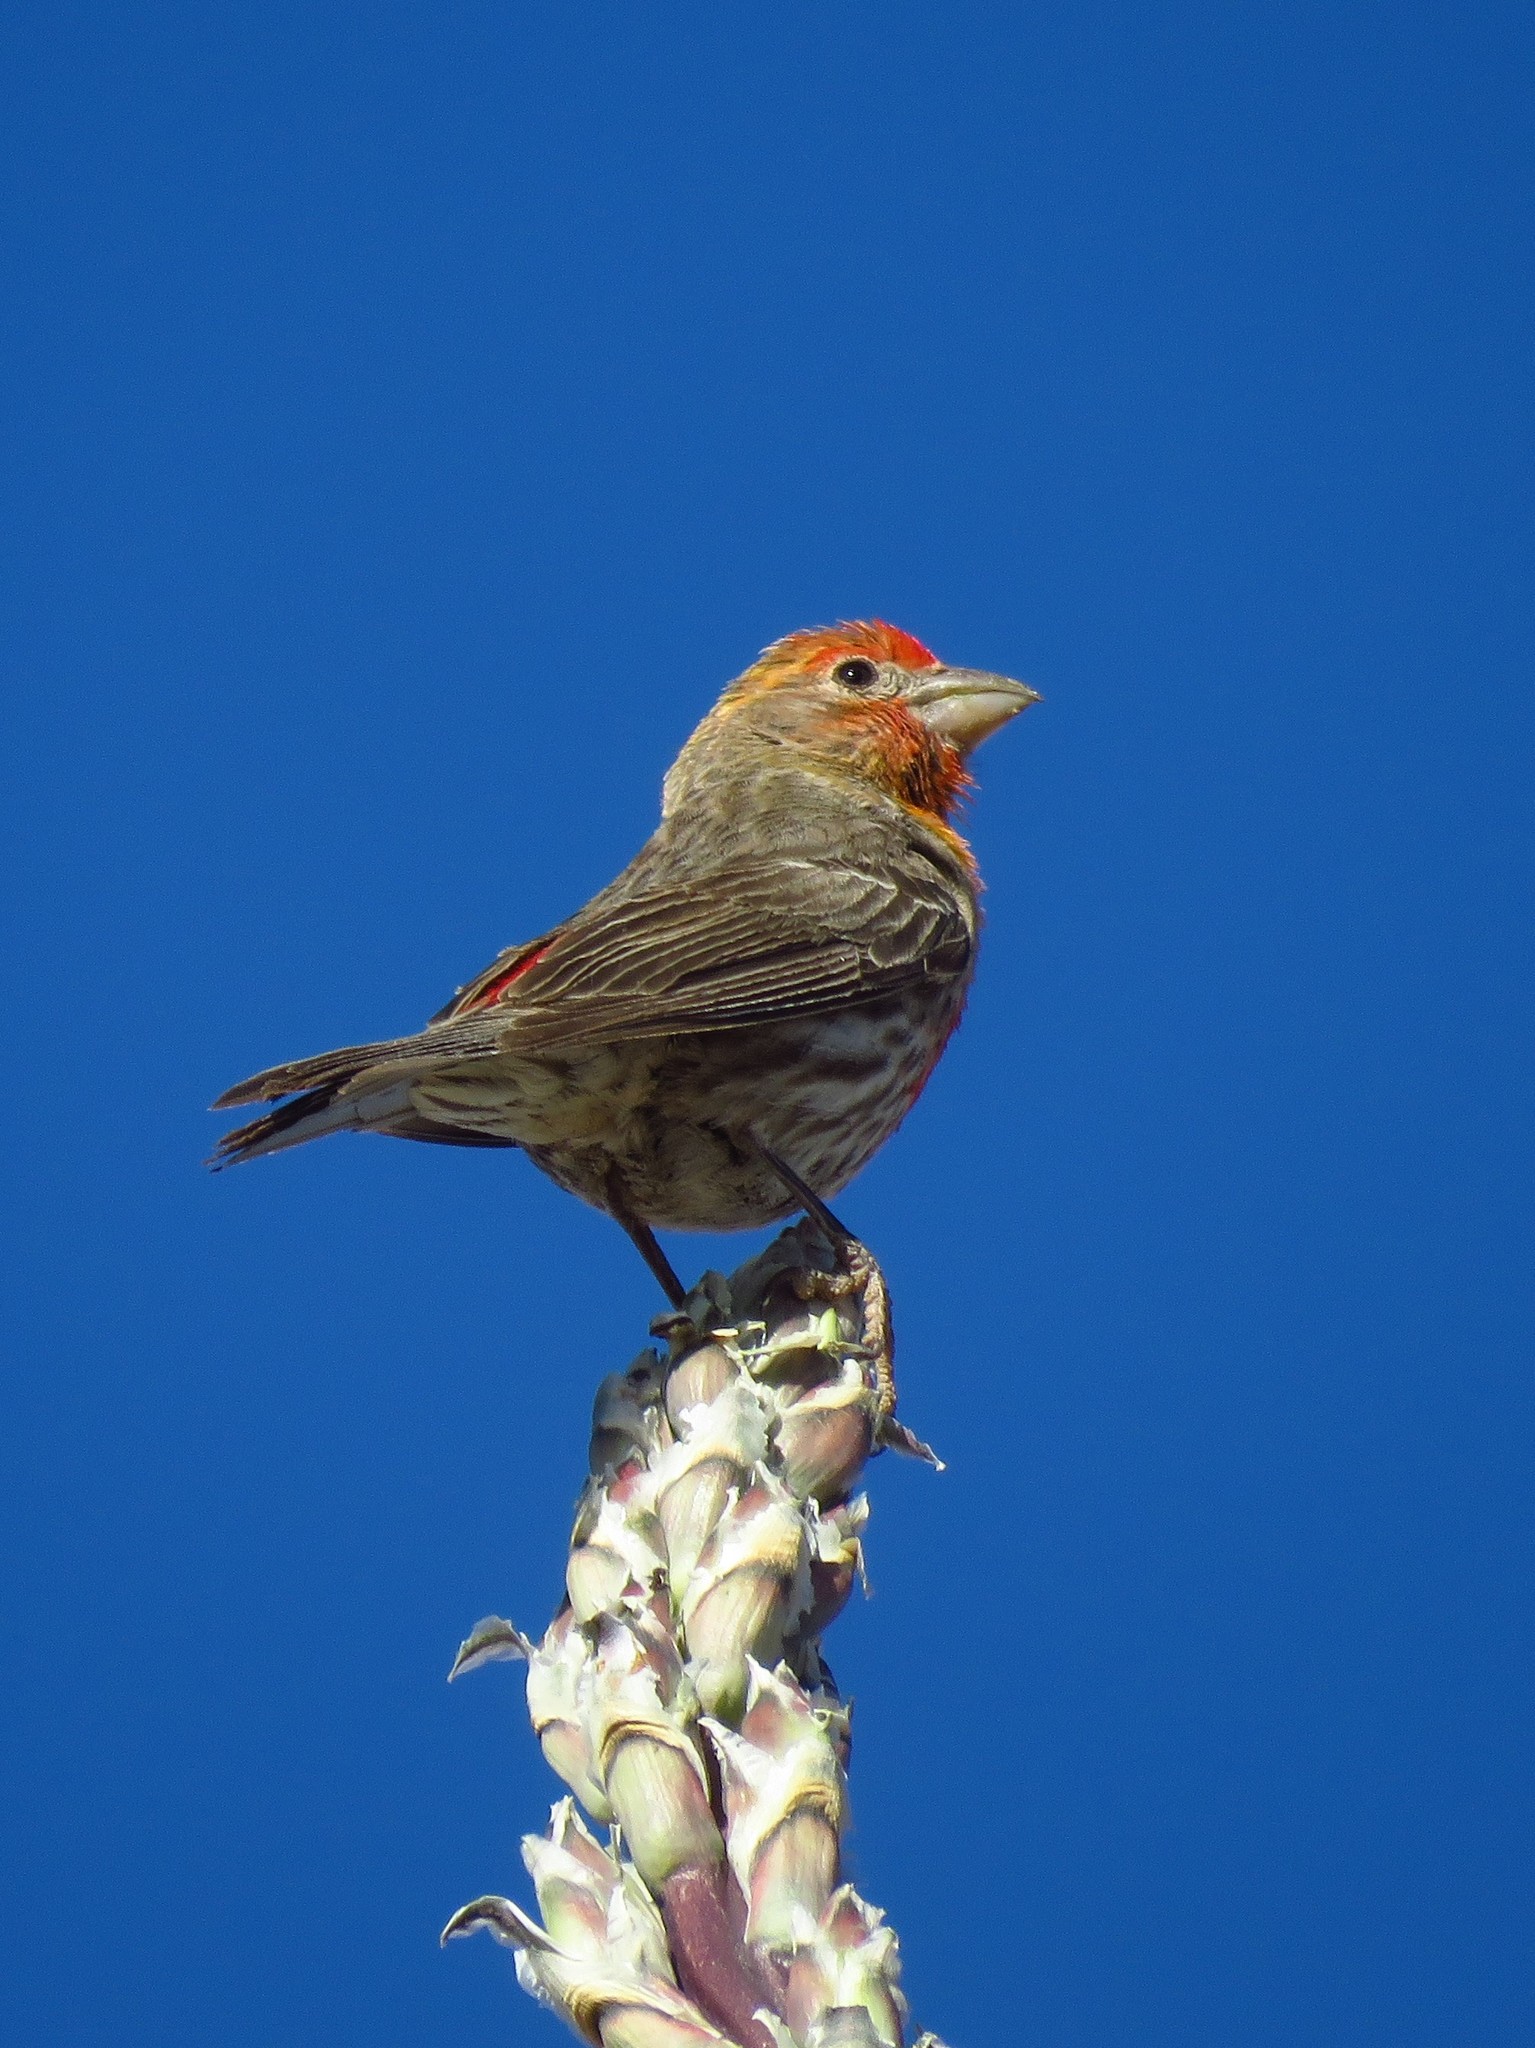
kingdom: Animalia
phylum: Chordata
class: Aves
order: Passeriformes
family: Fringillidae
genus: Haemorhous
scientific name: Haemorhous mexicanus
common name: House finch
